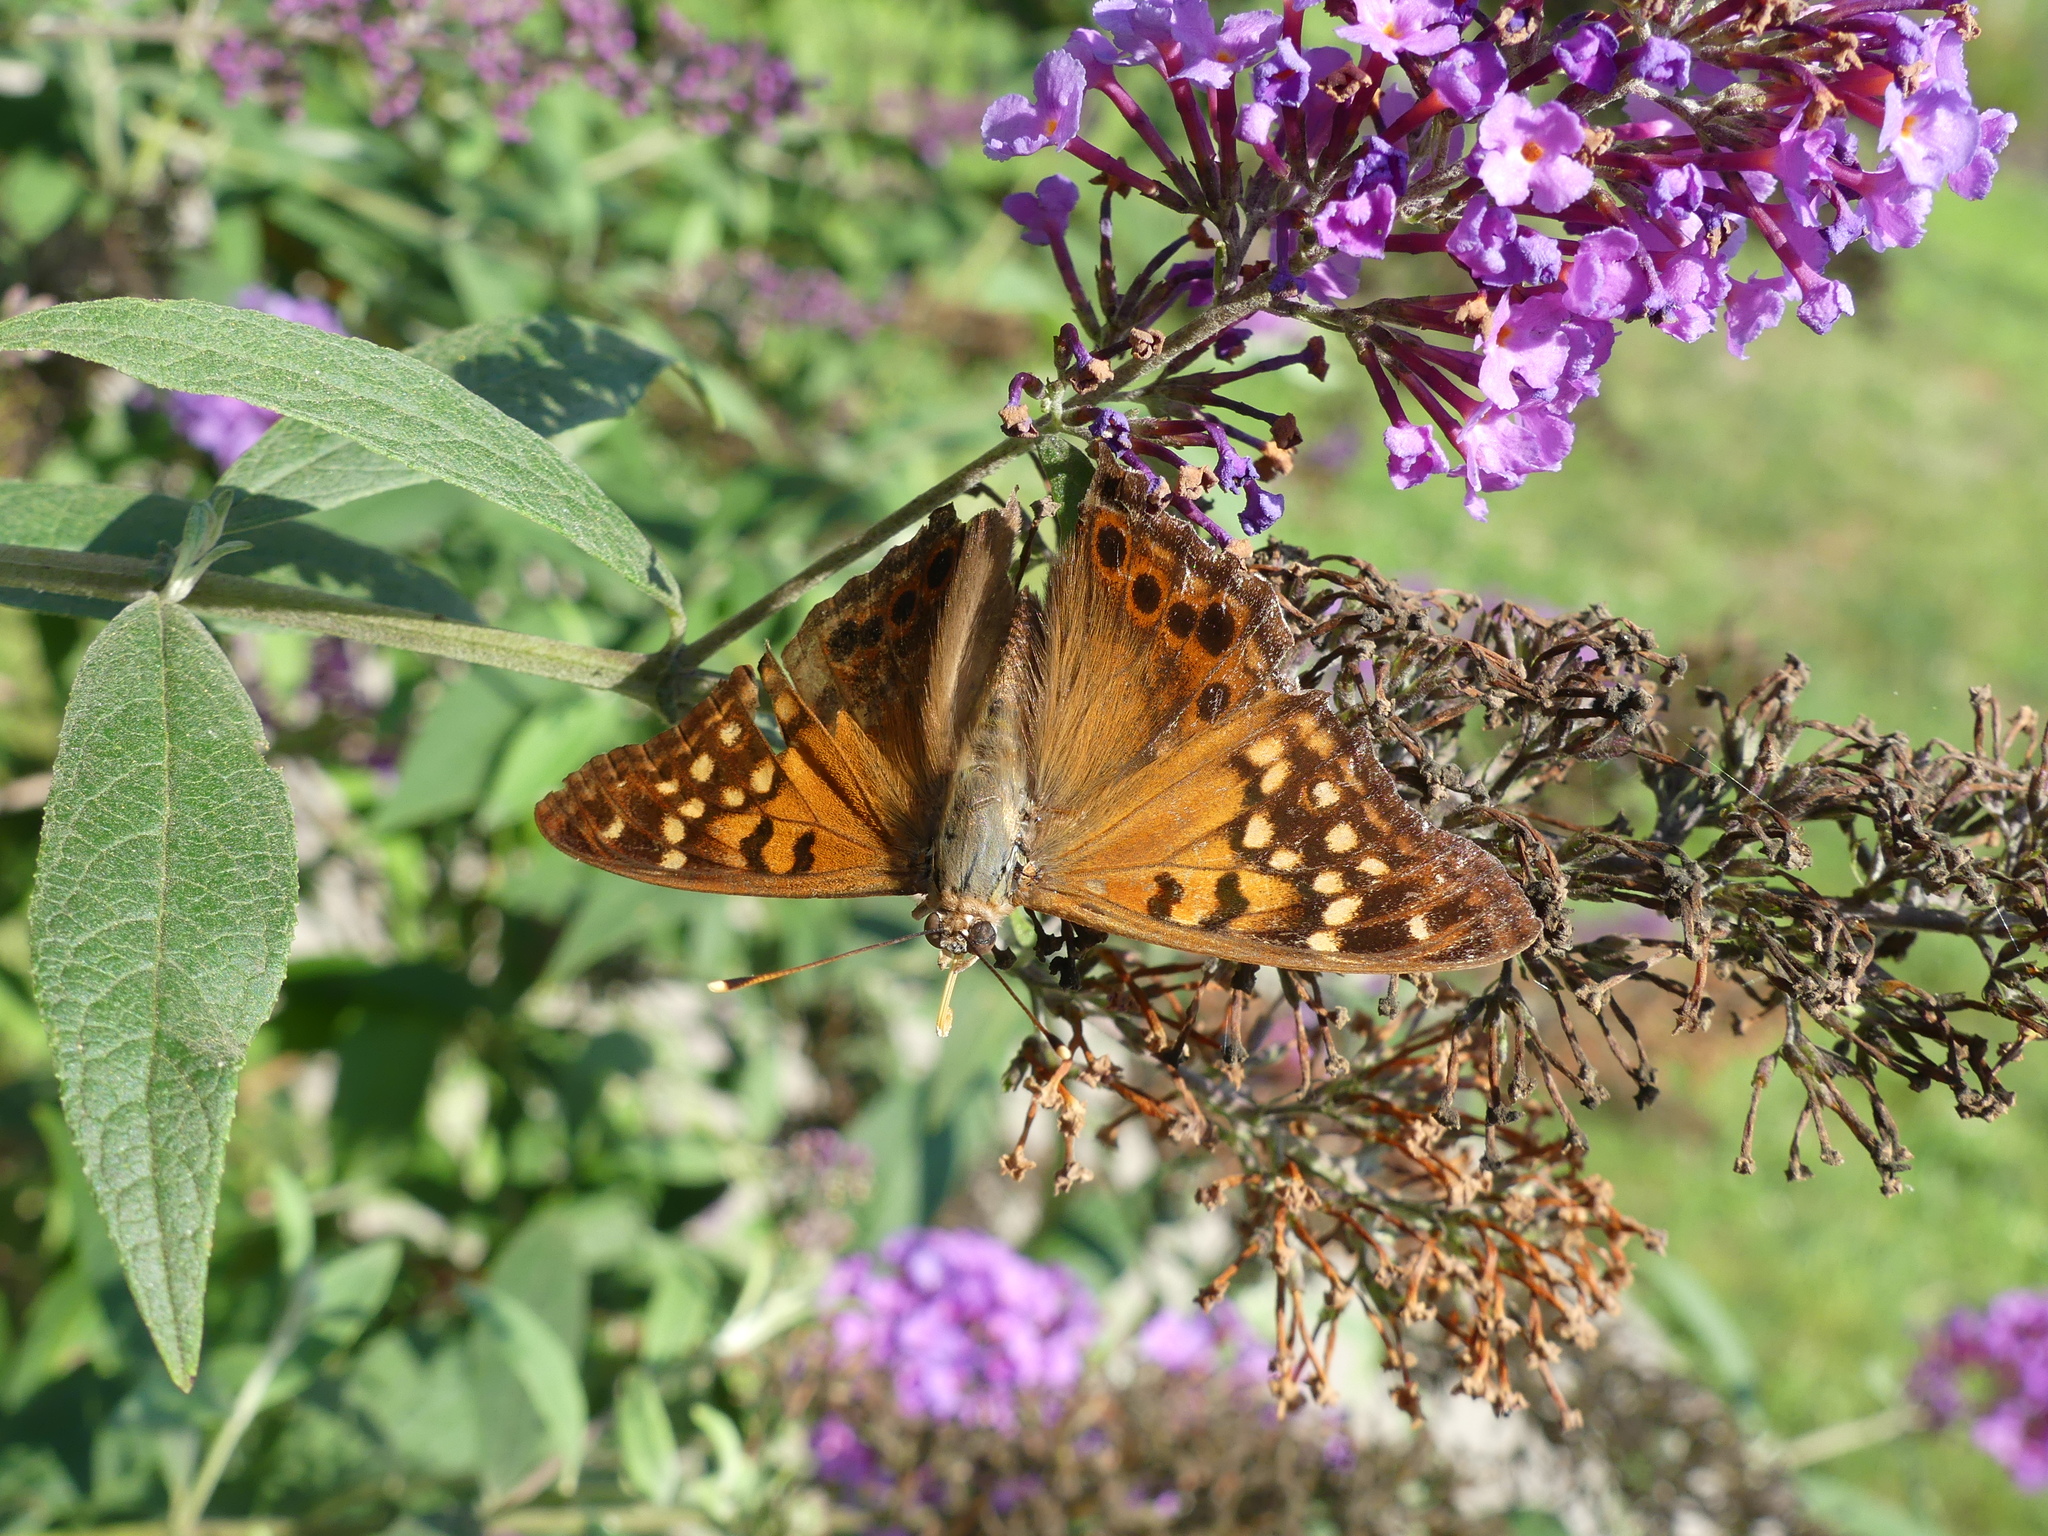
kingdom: Animalia
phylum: Arthropoda
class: Insecta
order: Lepidoptera
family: Nymphalidae
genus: Asterocampa
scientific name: Asterocampa clyton
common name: Tawny emperor
